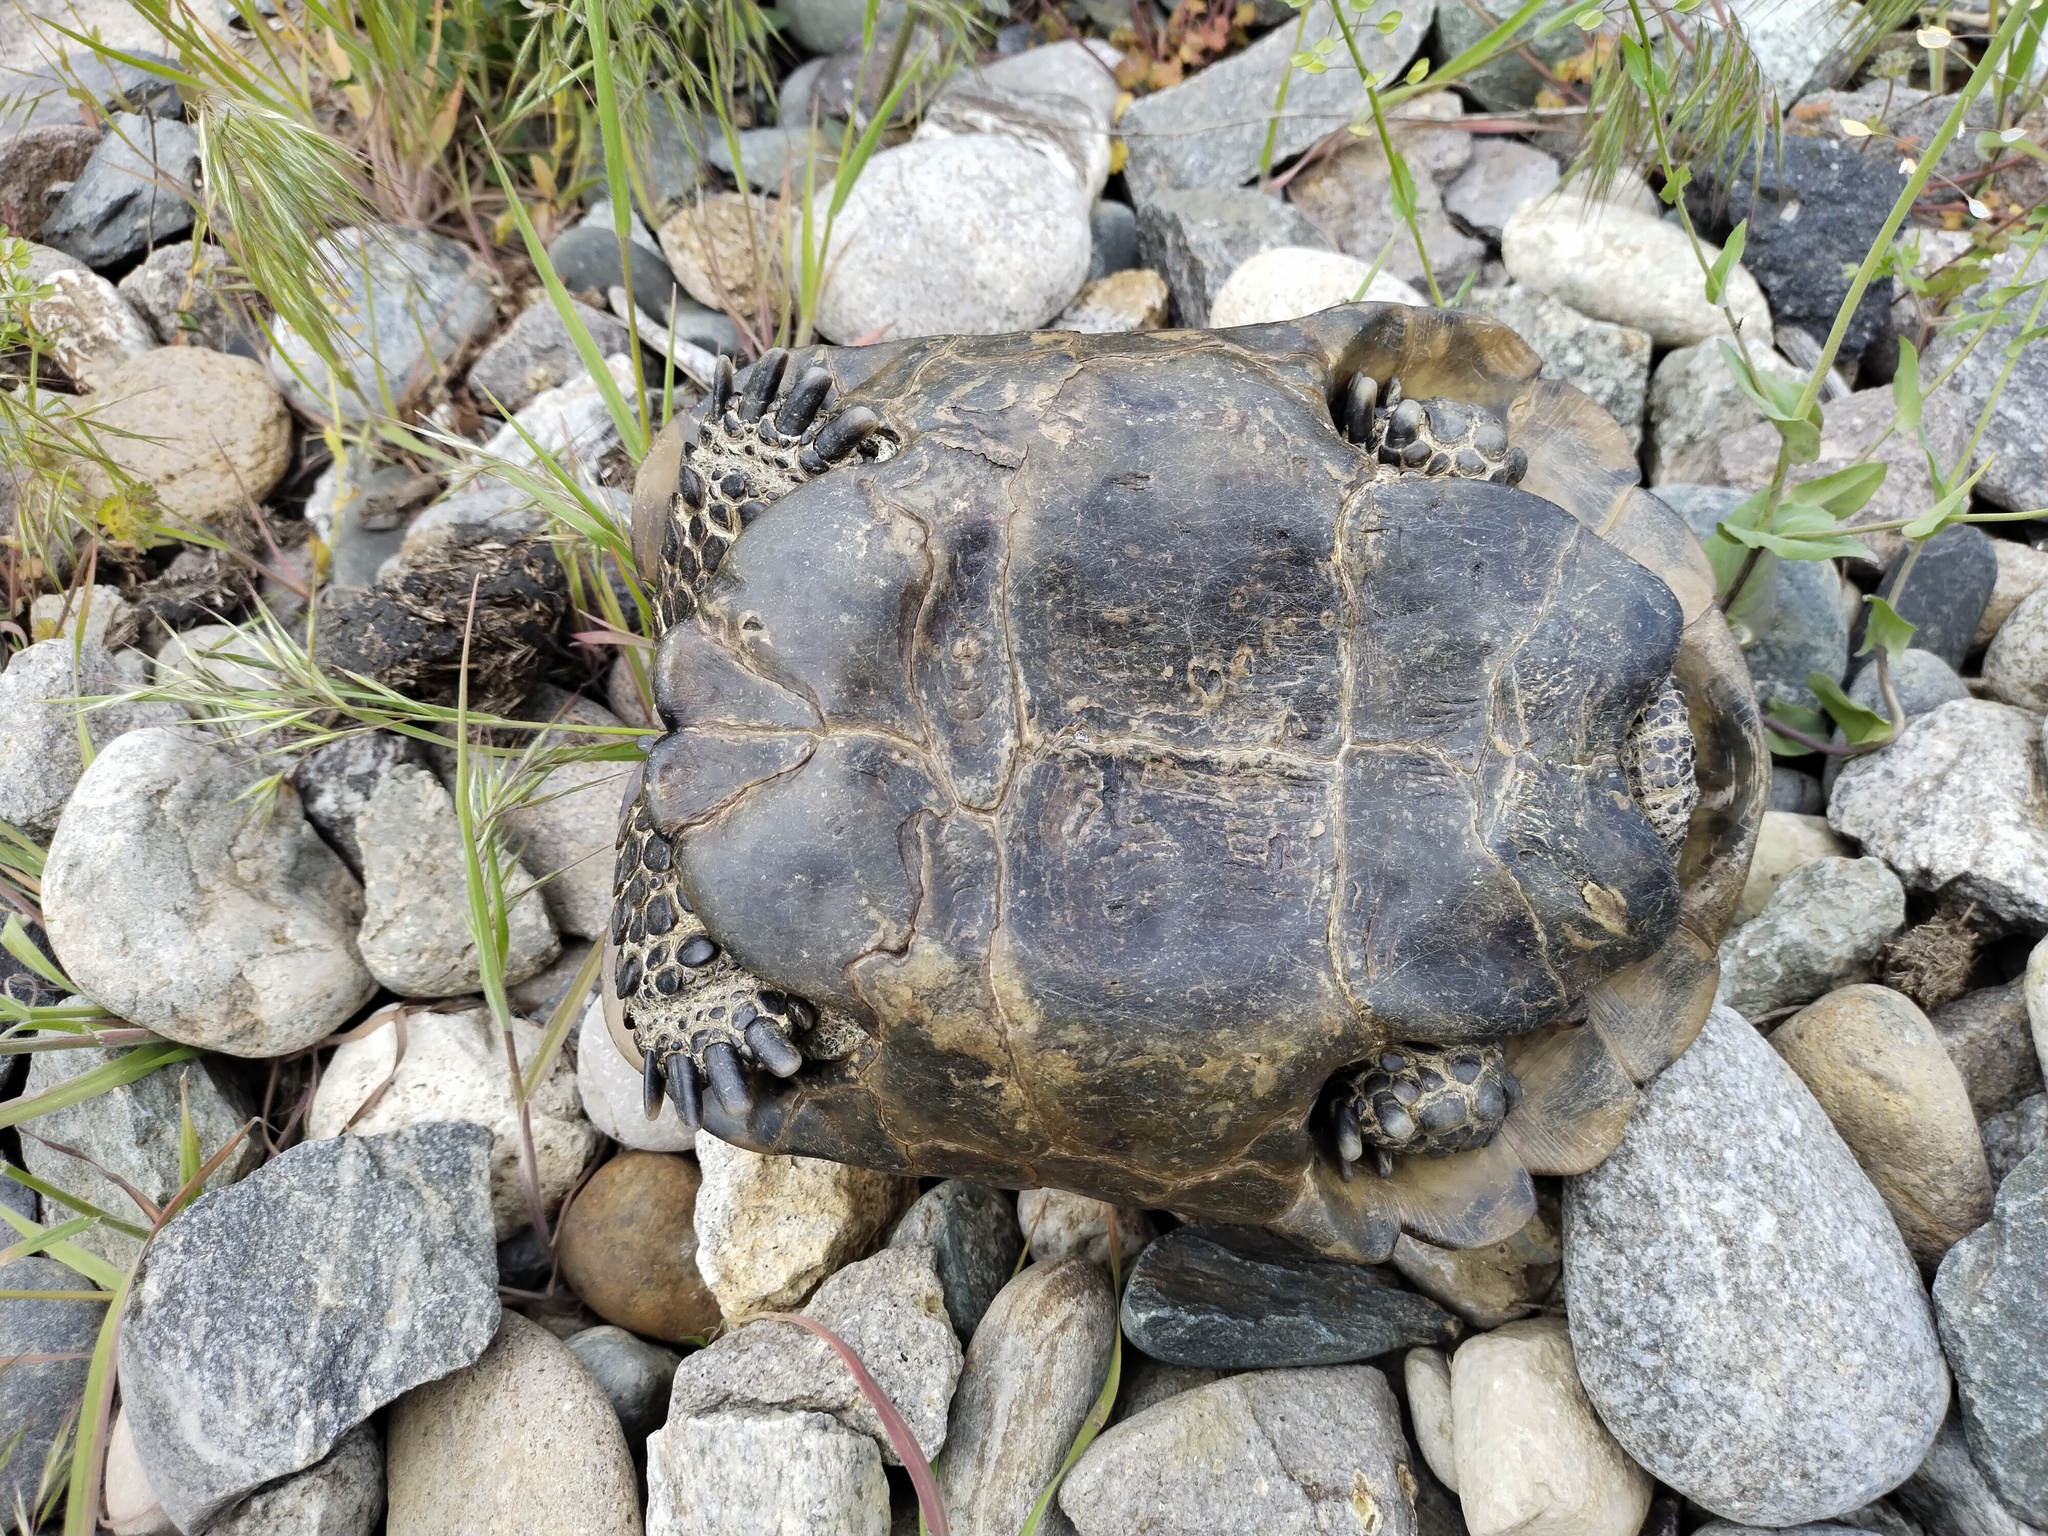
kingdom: Animalia
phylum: Chordata
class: Testudines
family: Testudinidae
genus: Testudo
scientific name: Testudo graeca
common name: Common tortoise
